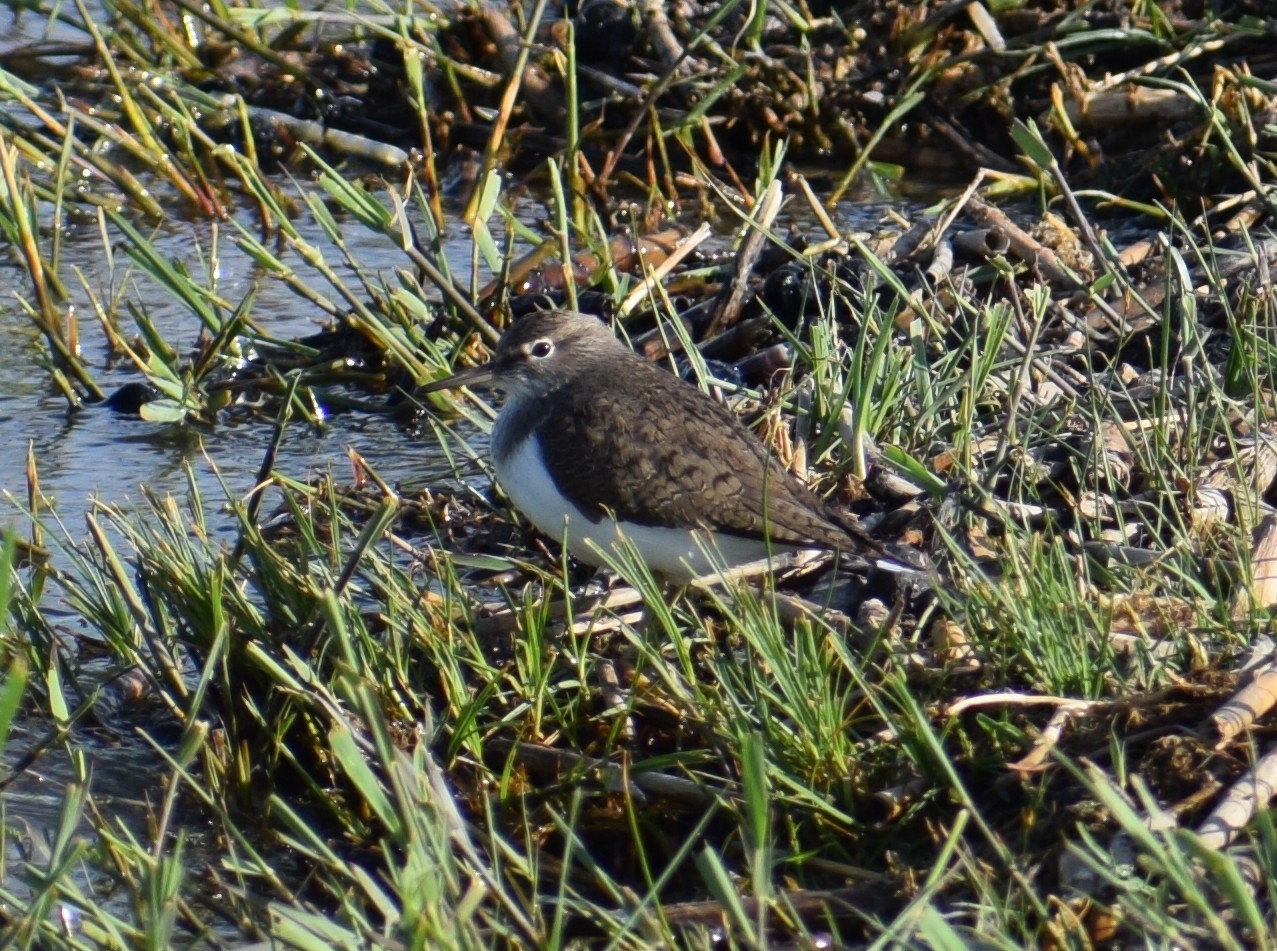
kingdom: Animalia
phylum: Chordata
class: Aves
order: Charadriiformes
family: Scolopacidae
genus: Actitis
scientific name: Actitis hypoleucos
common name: Common sandpiper
